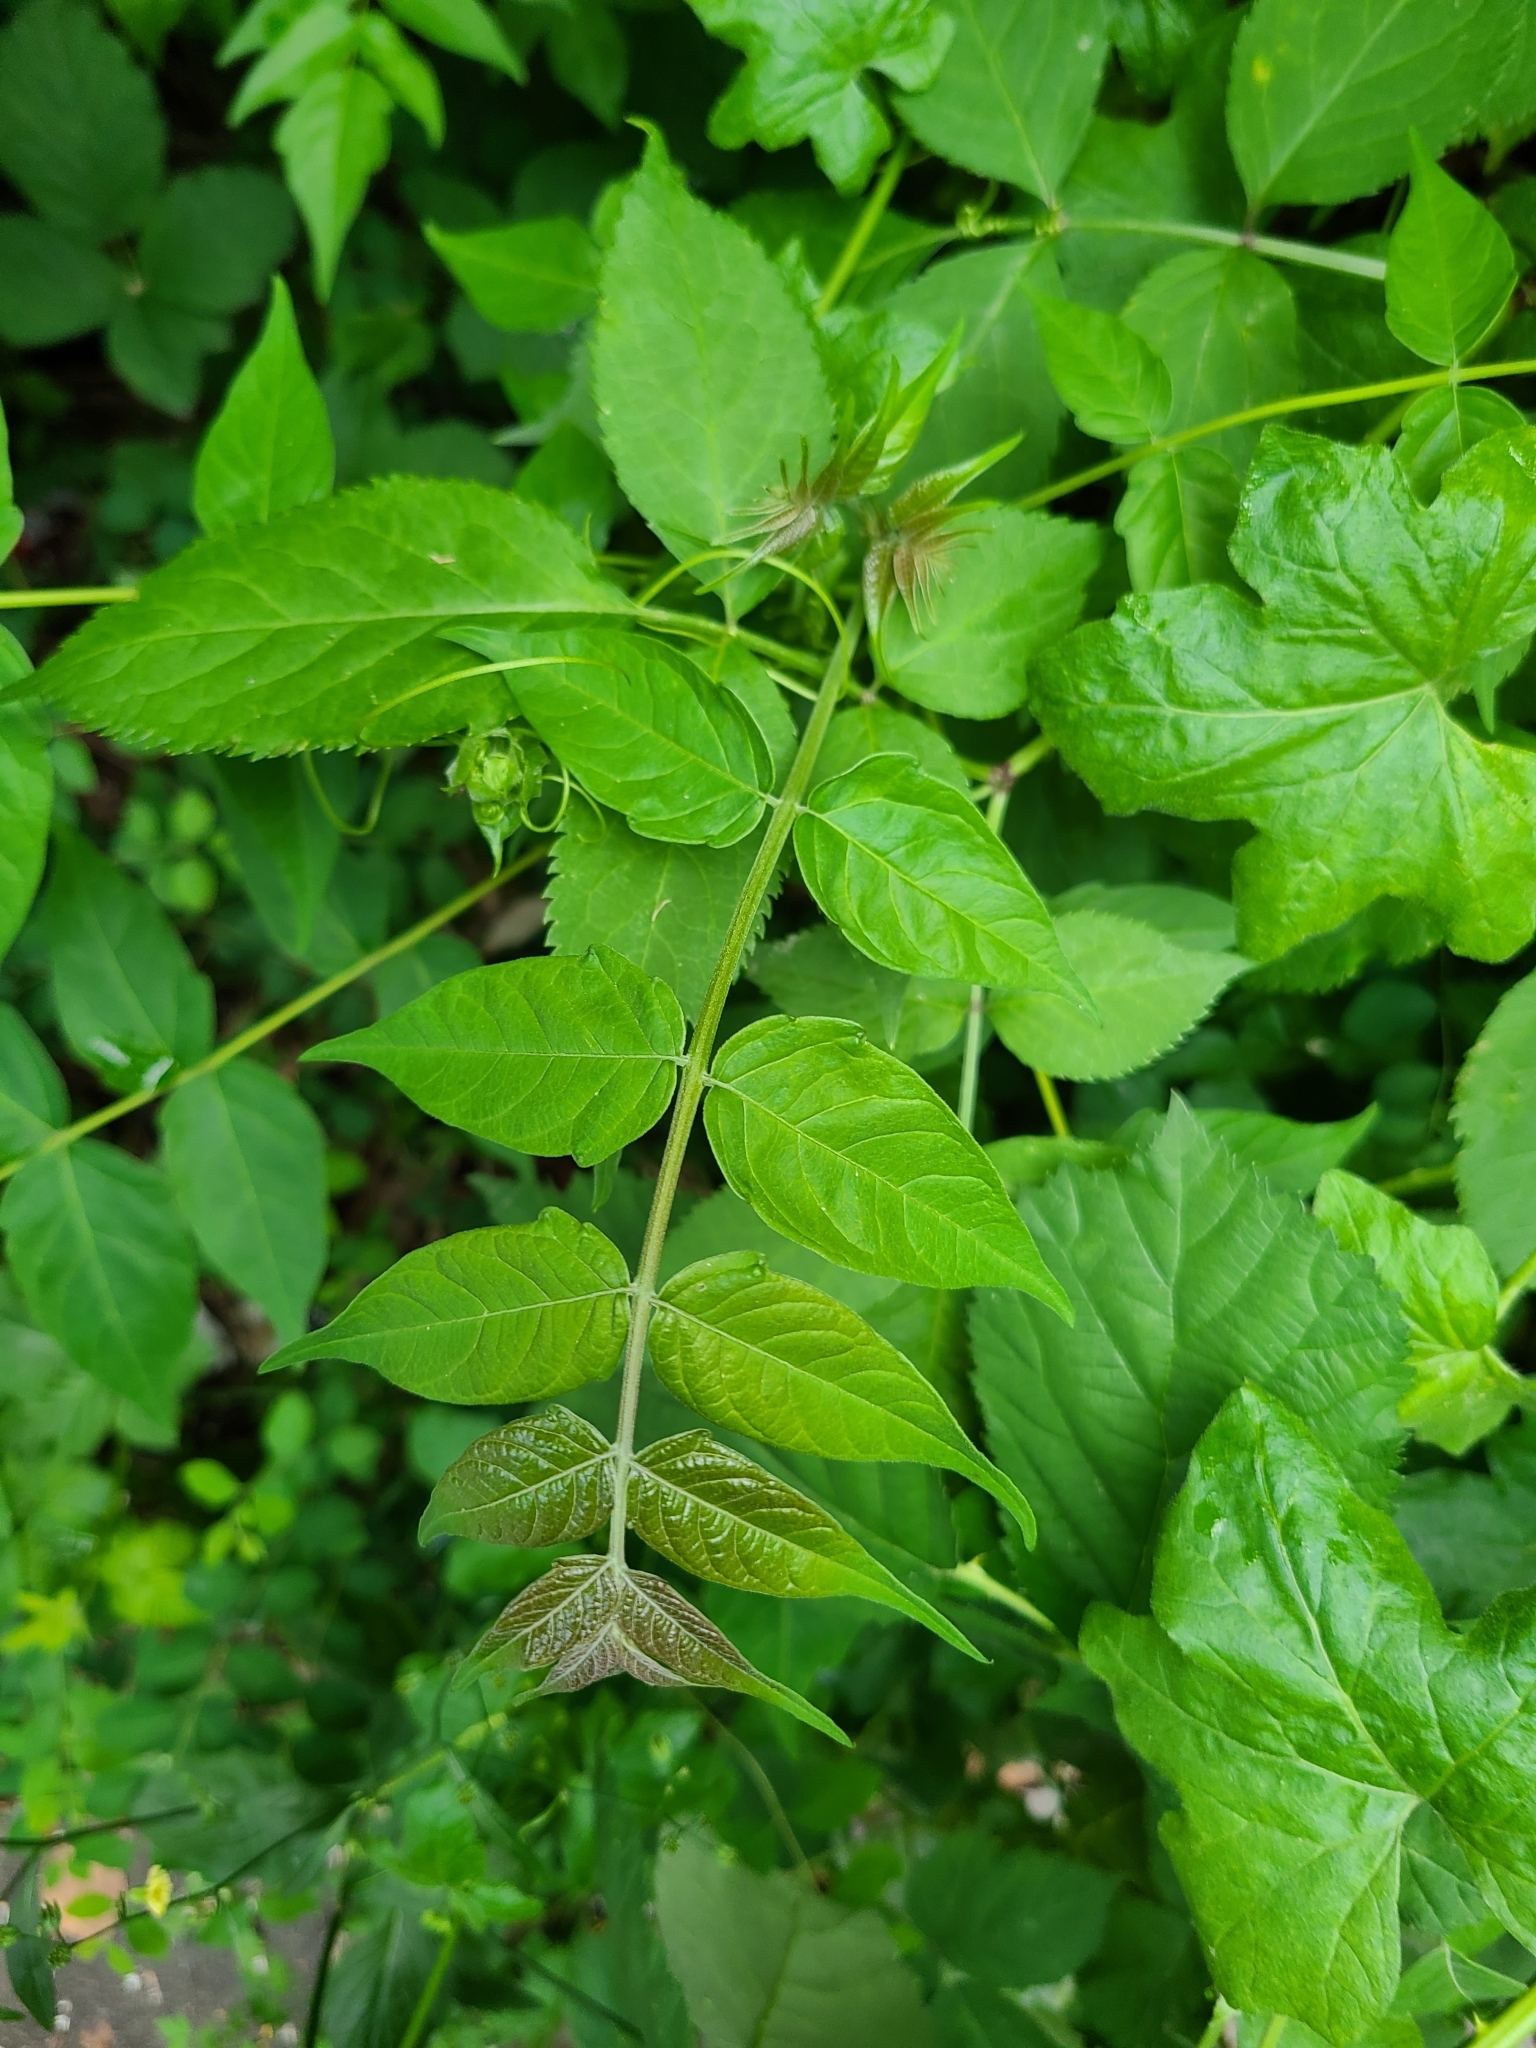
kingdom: Plantae
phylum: Tracheophyta
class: Magnoliopsida
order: Sapindales
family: Simaroubaceae
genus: Ailanthus
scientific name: Ailanthus altissima
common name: Tree-of-heaven
